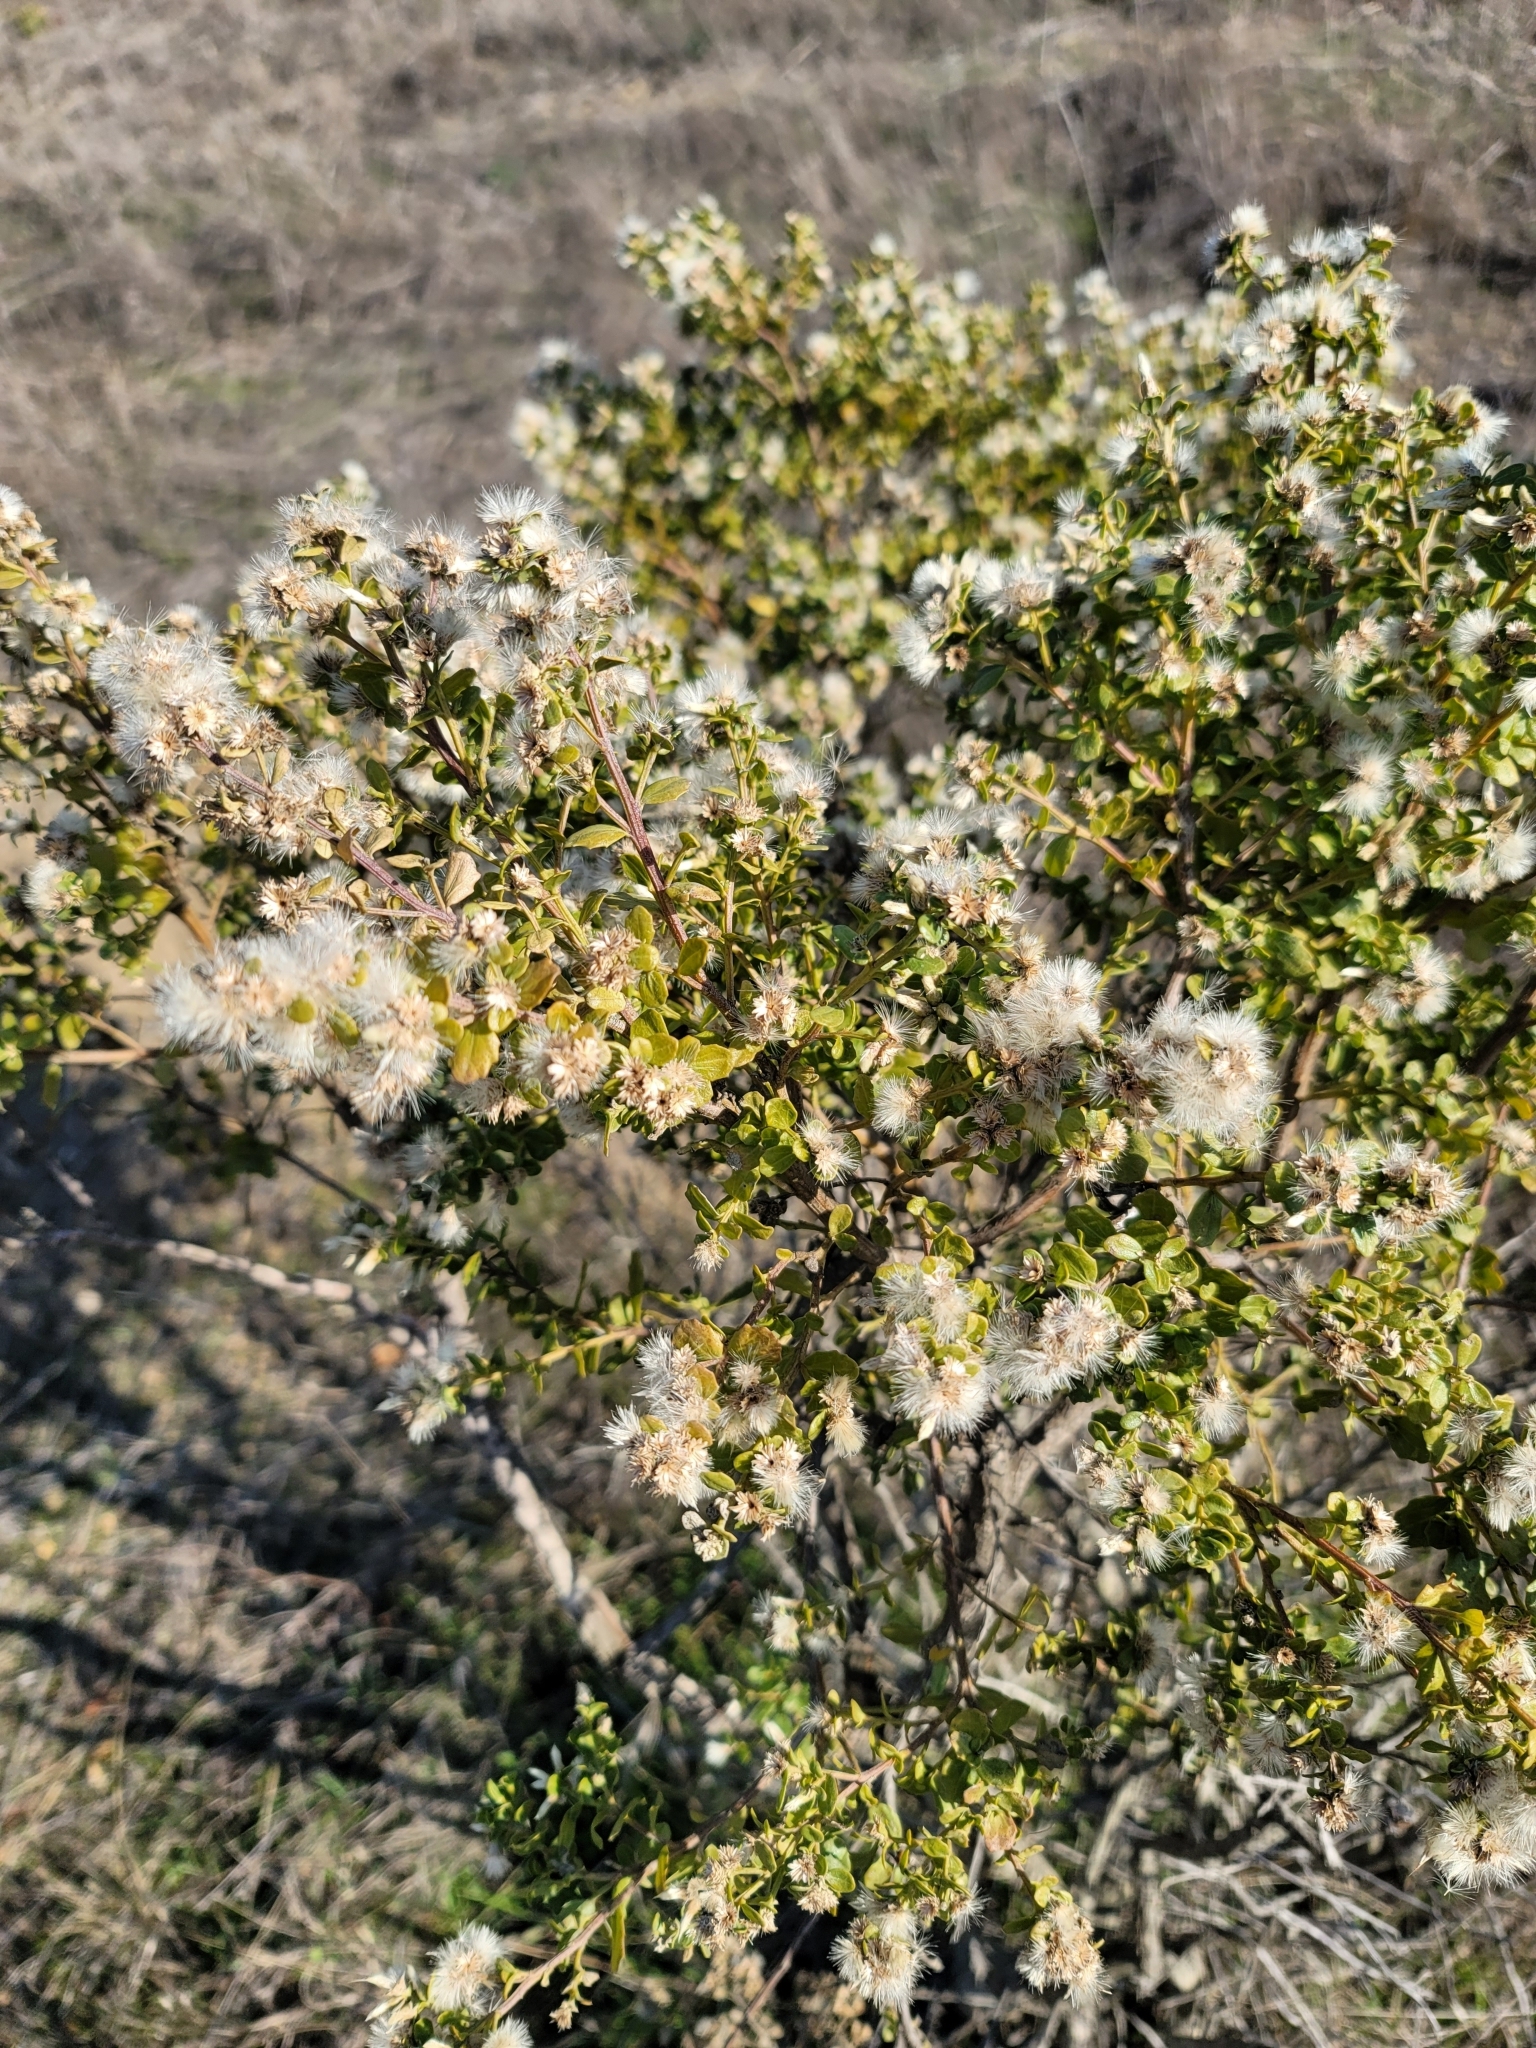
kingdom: Plantae
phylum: Tracheophyta
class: Magnoliopsida
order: Asterales
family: Asteraceae
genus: Baccharis
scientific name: Baccharis pilularis
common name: Coyotebrush
